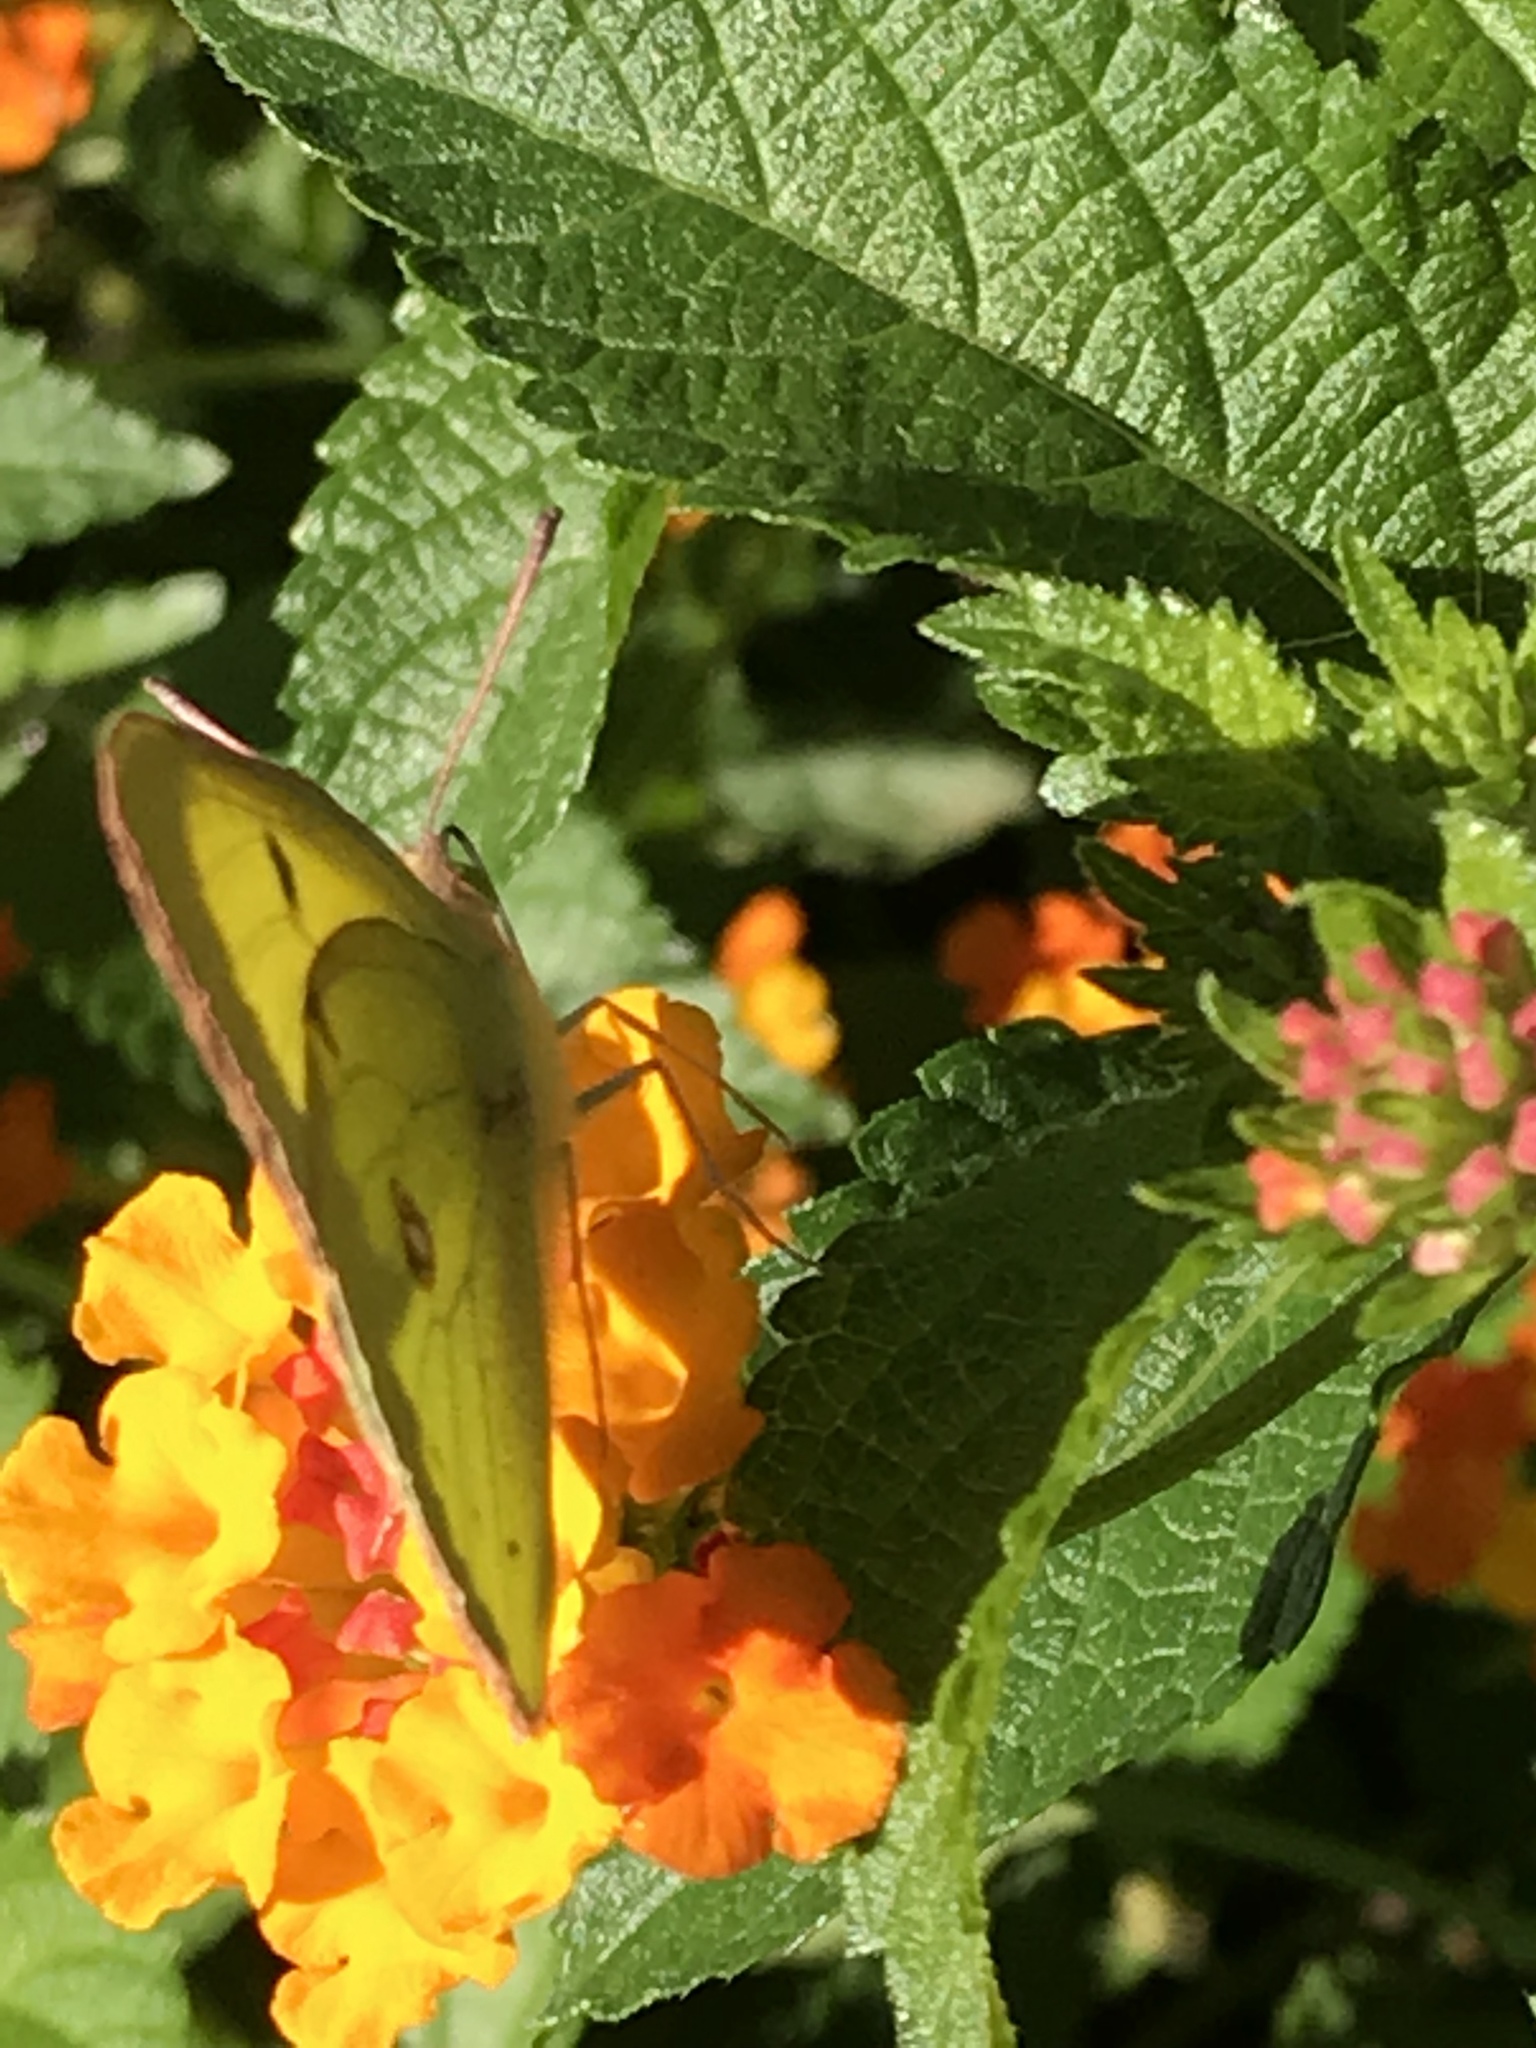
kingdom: Animalia
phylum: Arthropoda
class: Insecta
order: Lepidoptera
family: Pieridae
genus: Colias
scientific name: Colias philodice
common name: Clouded sulphur
